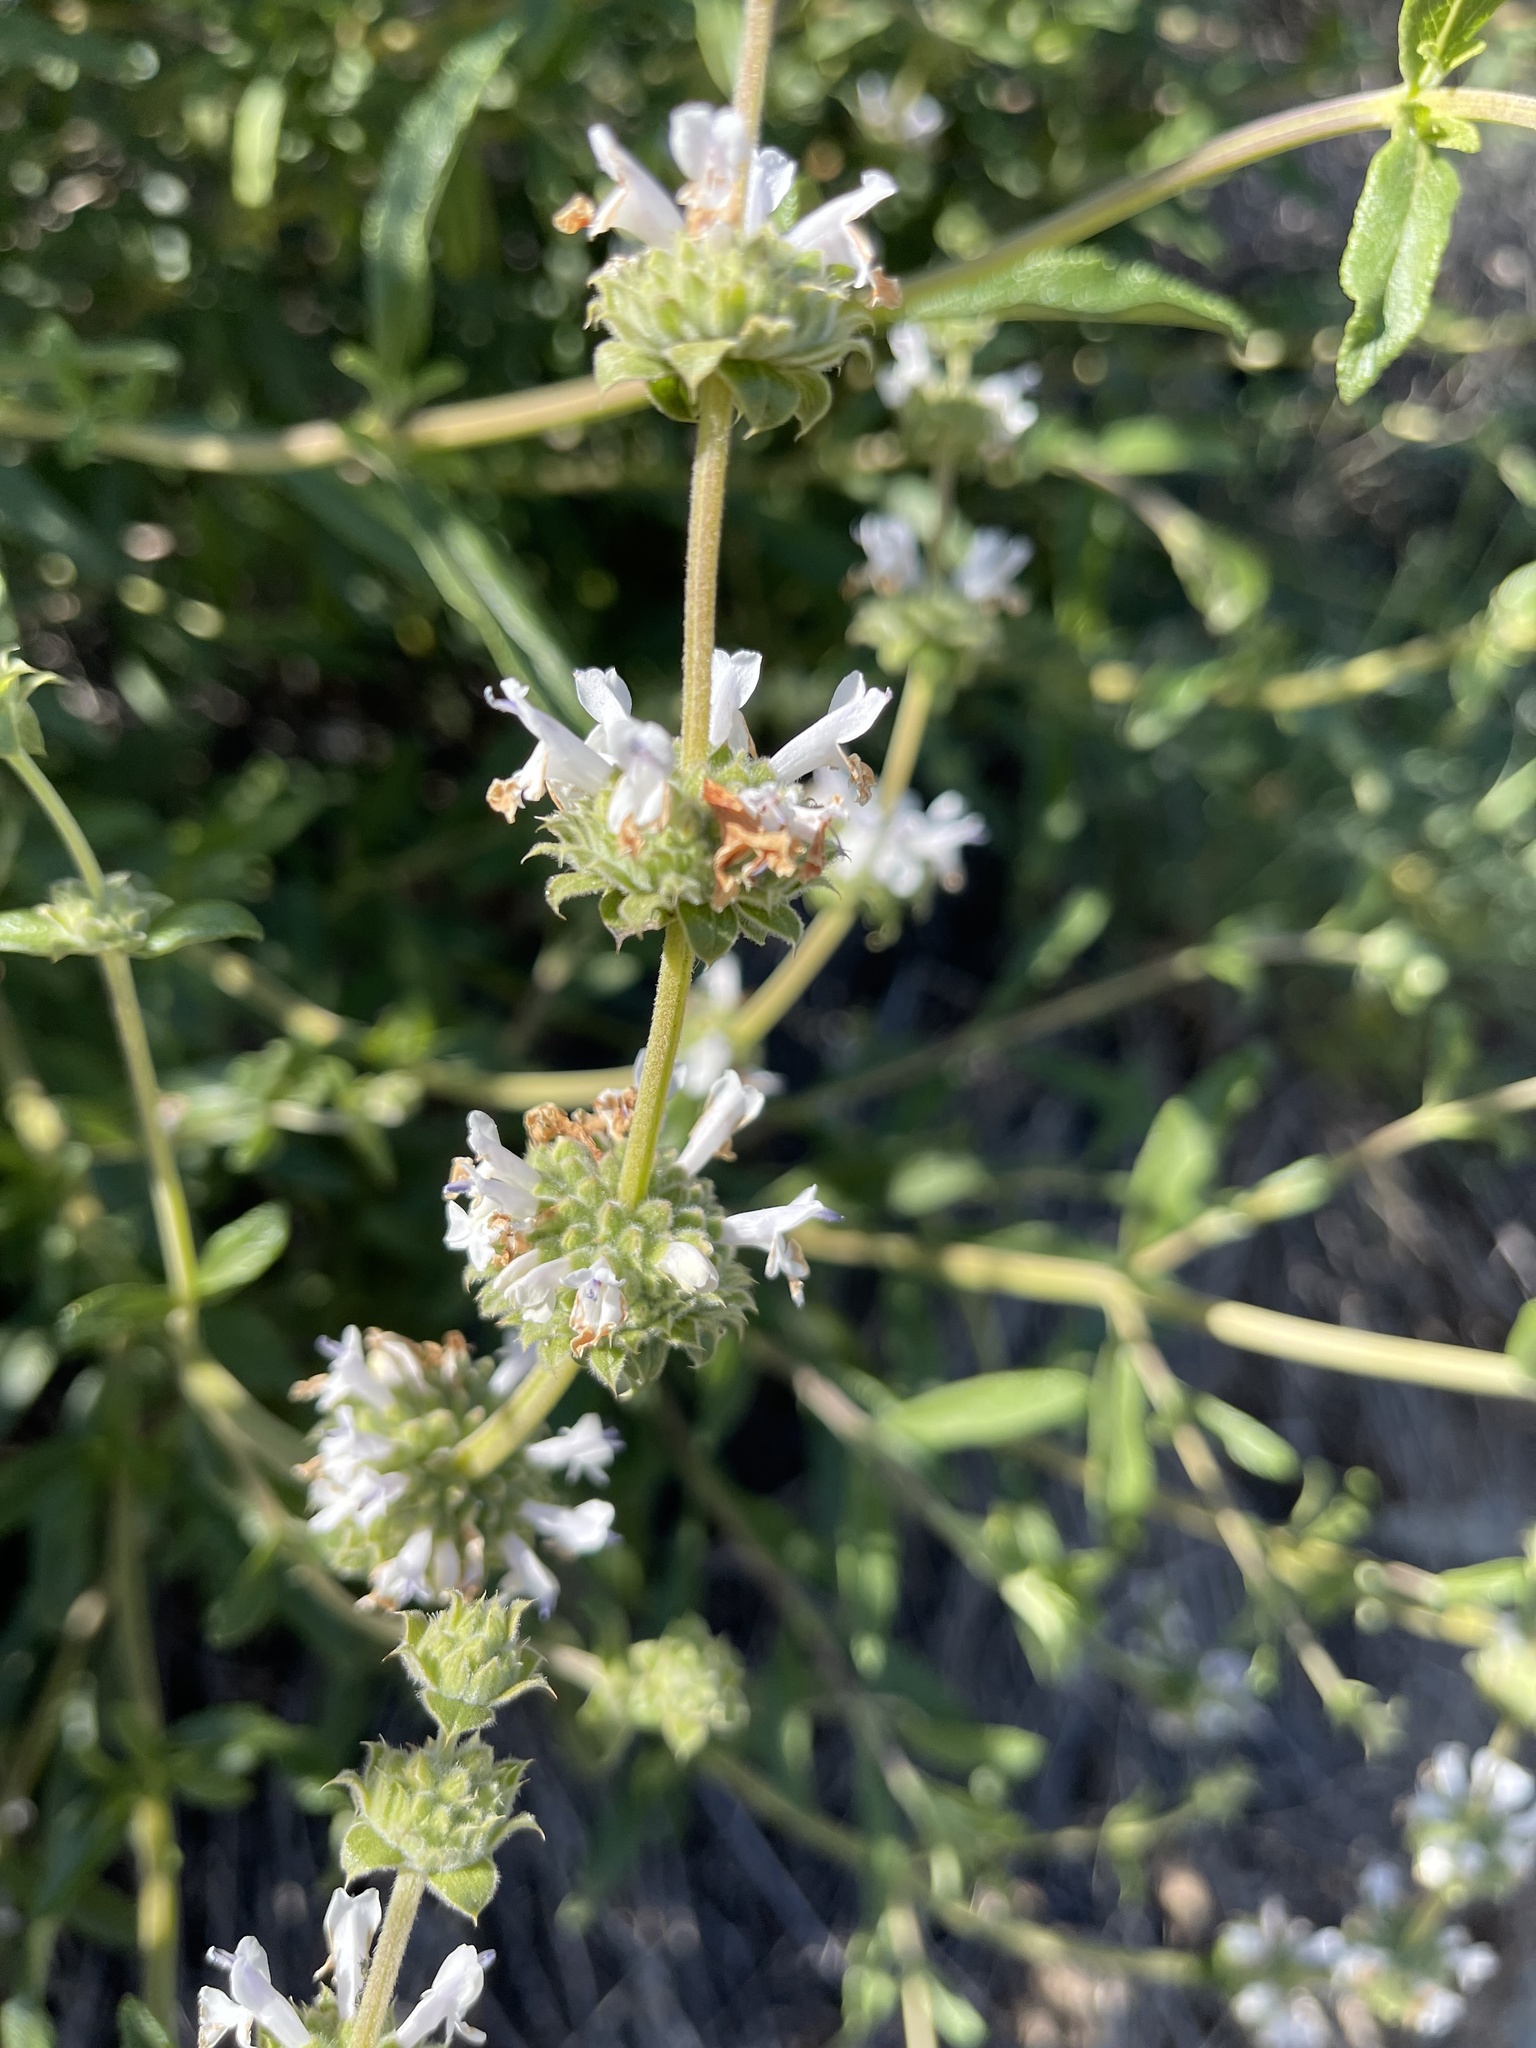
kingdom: Plantae
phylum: Tracheophyta
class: Magnoliopsida
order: Lamiales
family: Lamiaceae
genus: Salvia
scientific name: Salvia mellifera
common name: Black sage
